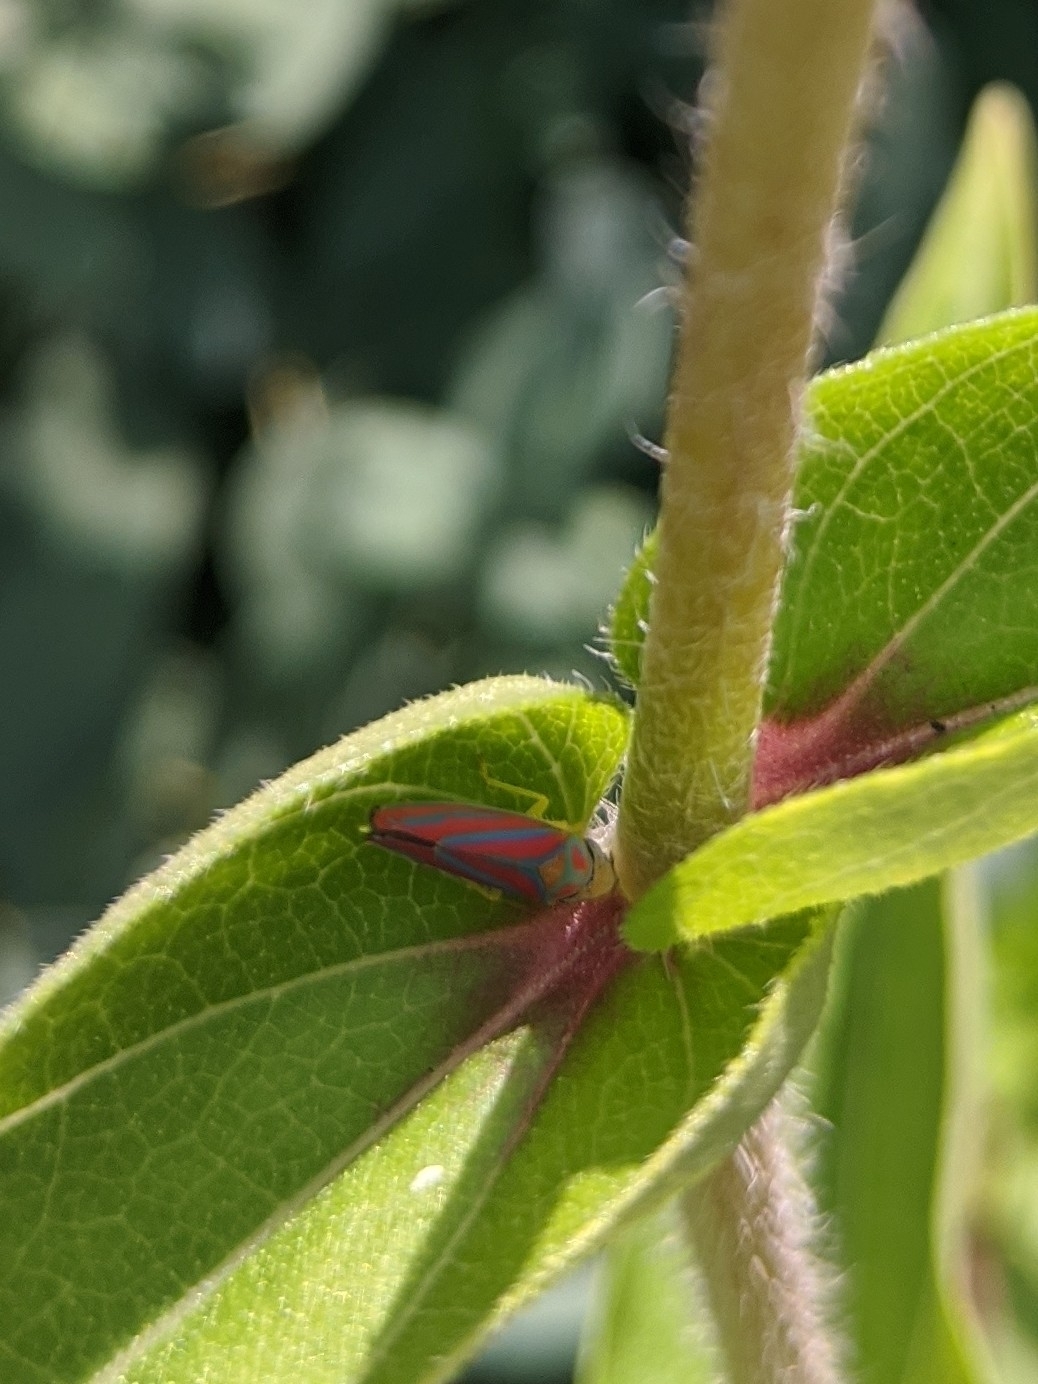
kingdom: Animalia
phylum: Arthropoda
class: Insecta
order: Hemiptera
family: Cicadellidae
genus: Graphocephala
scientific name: Graphocephala coccinea
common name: Candy-striped leafhopper
